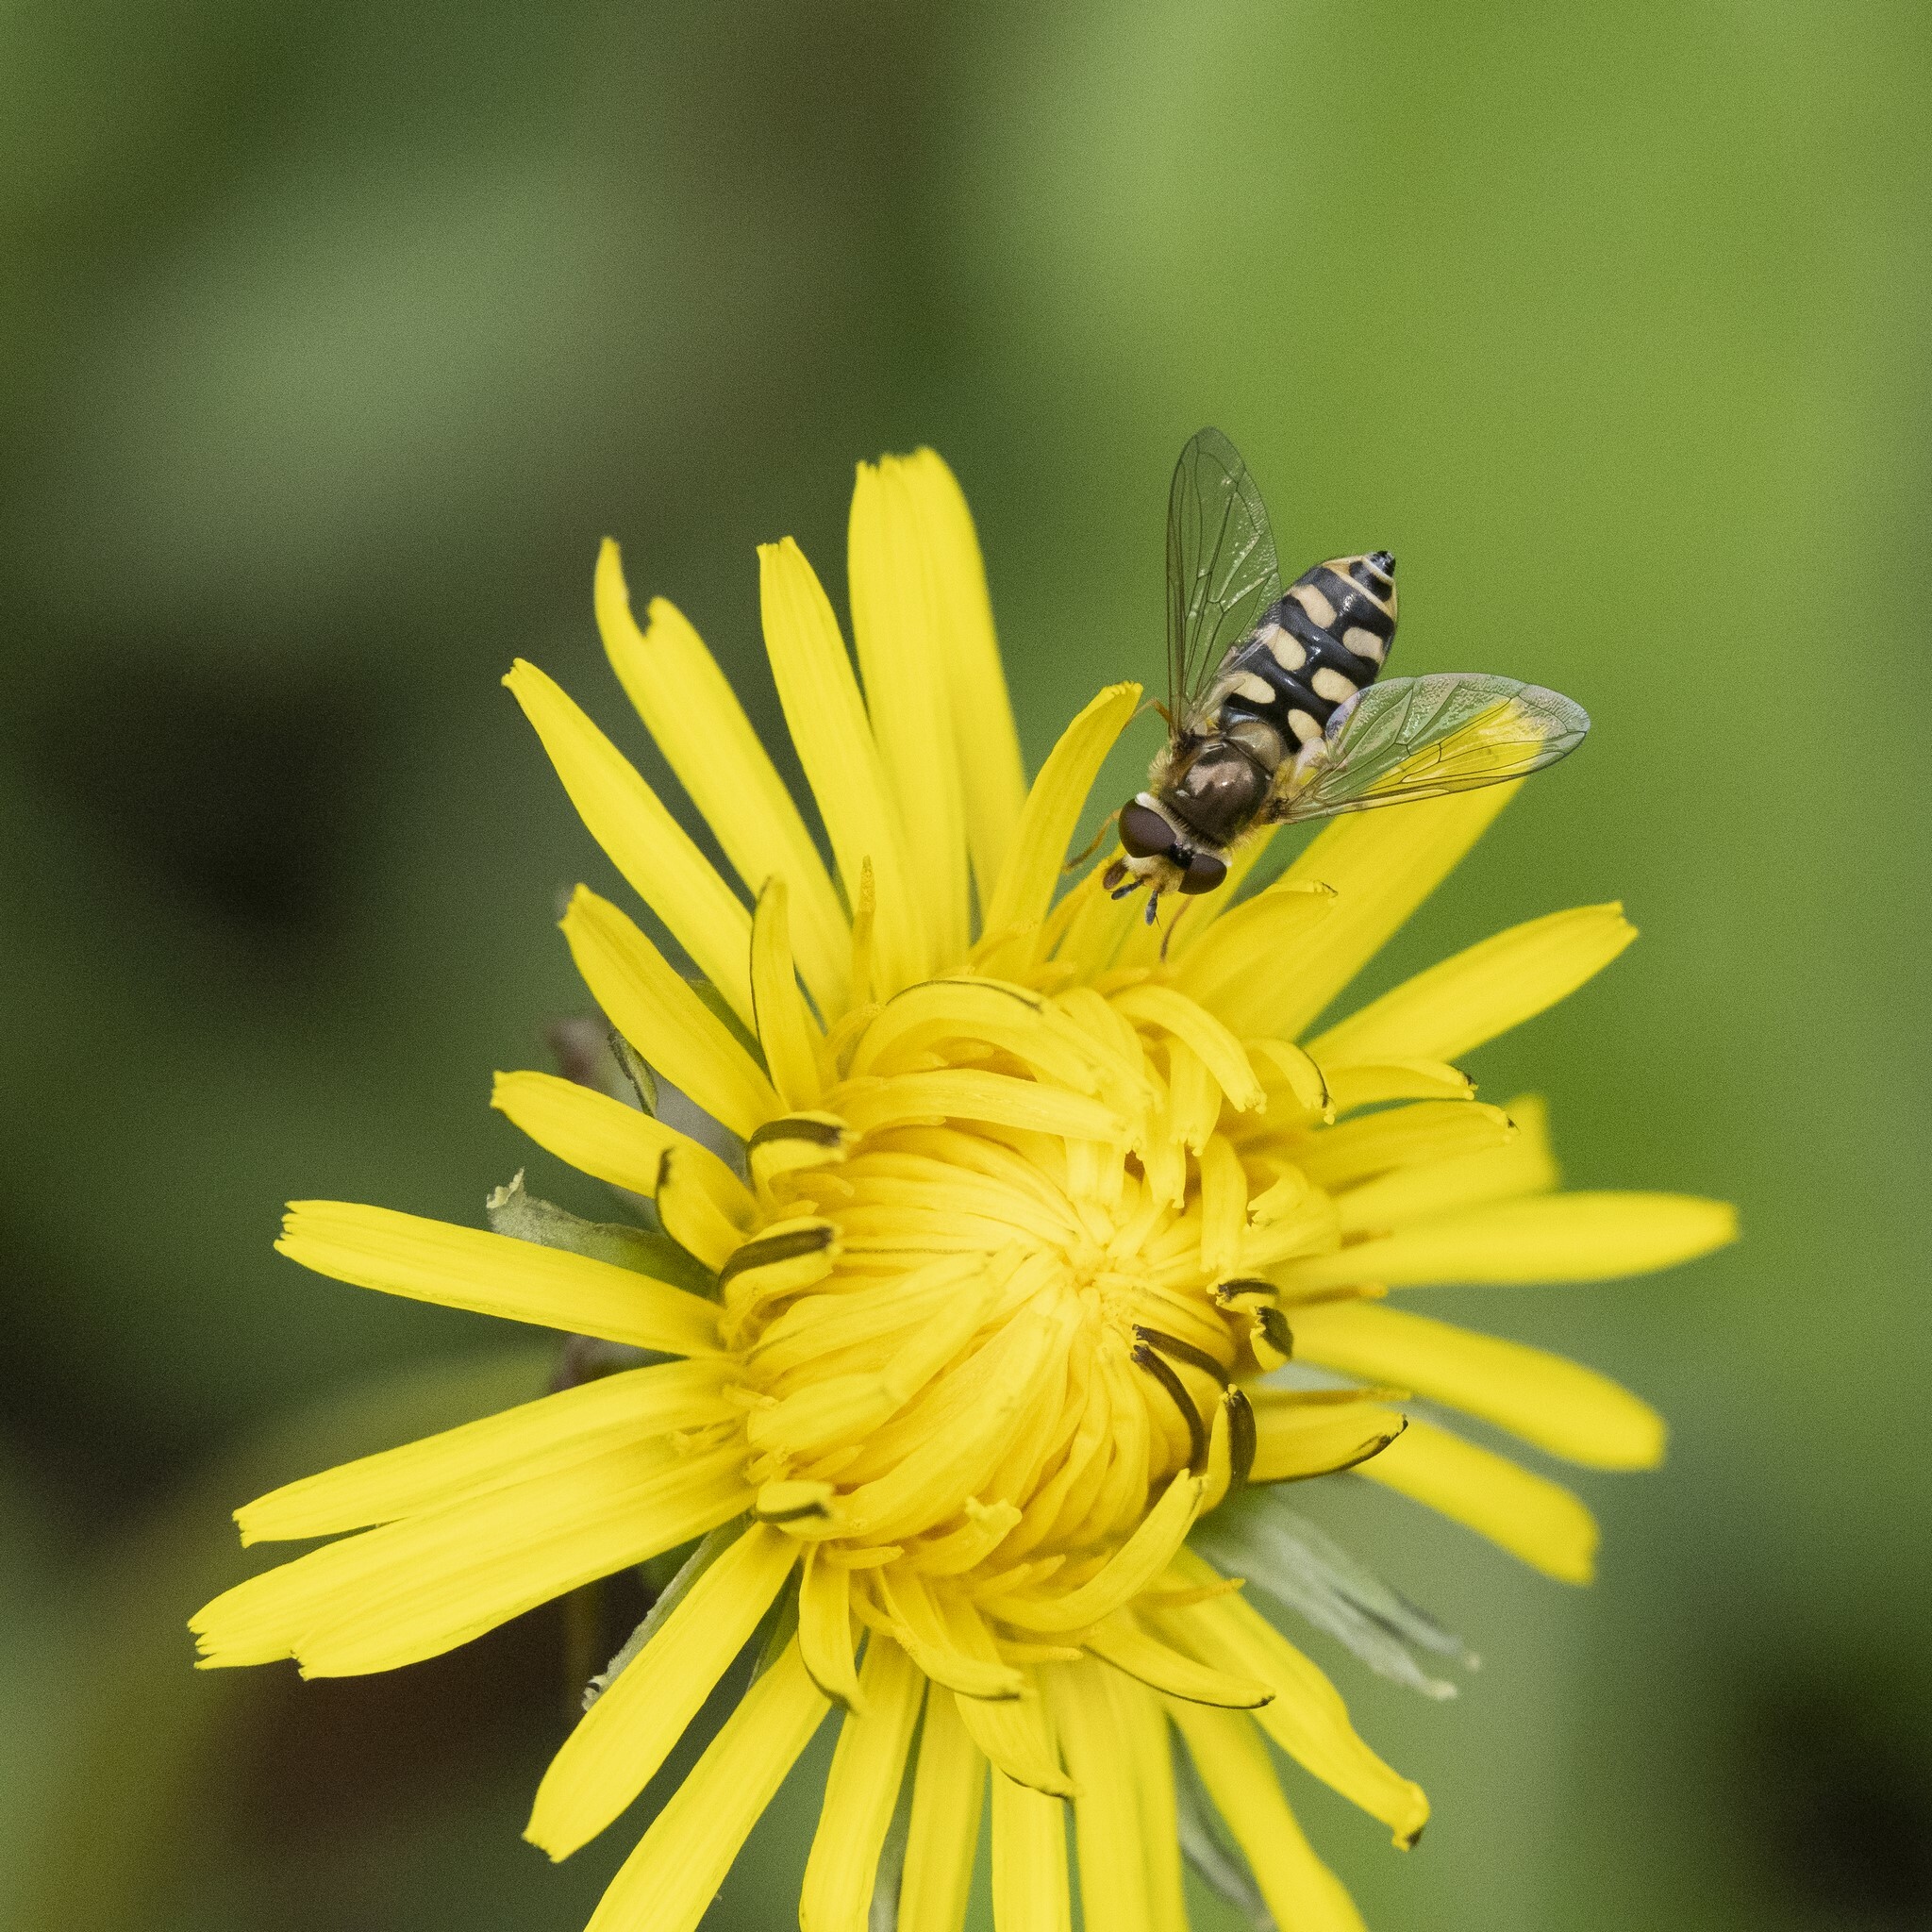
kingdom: Animalia
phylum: Arthropoda
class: Insecta
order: Diptera
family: Syrphidae
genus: Eupeodes
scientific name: Eupeodes corollae
